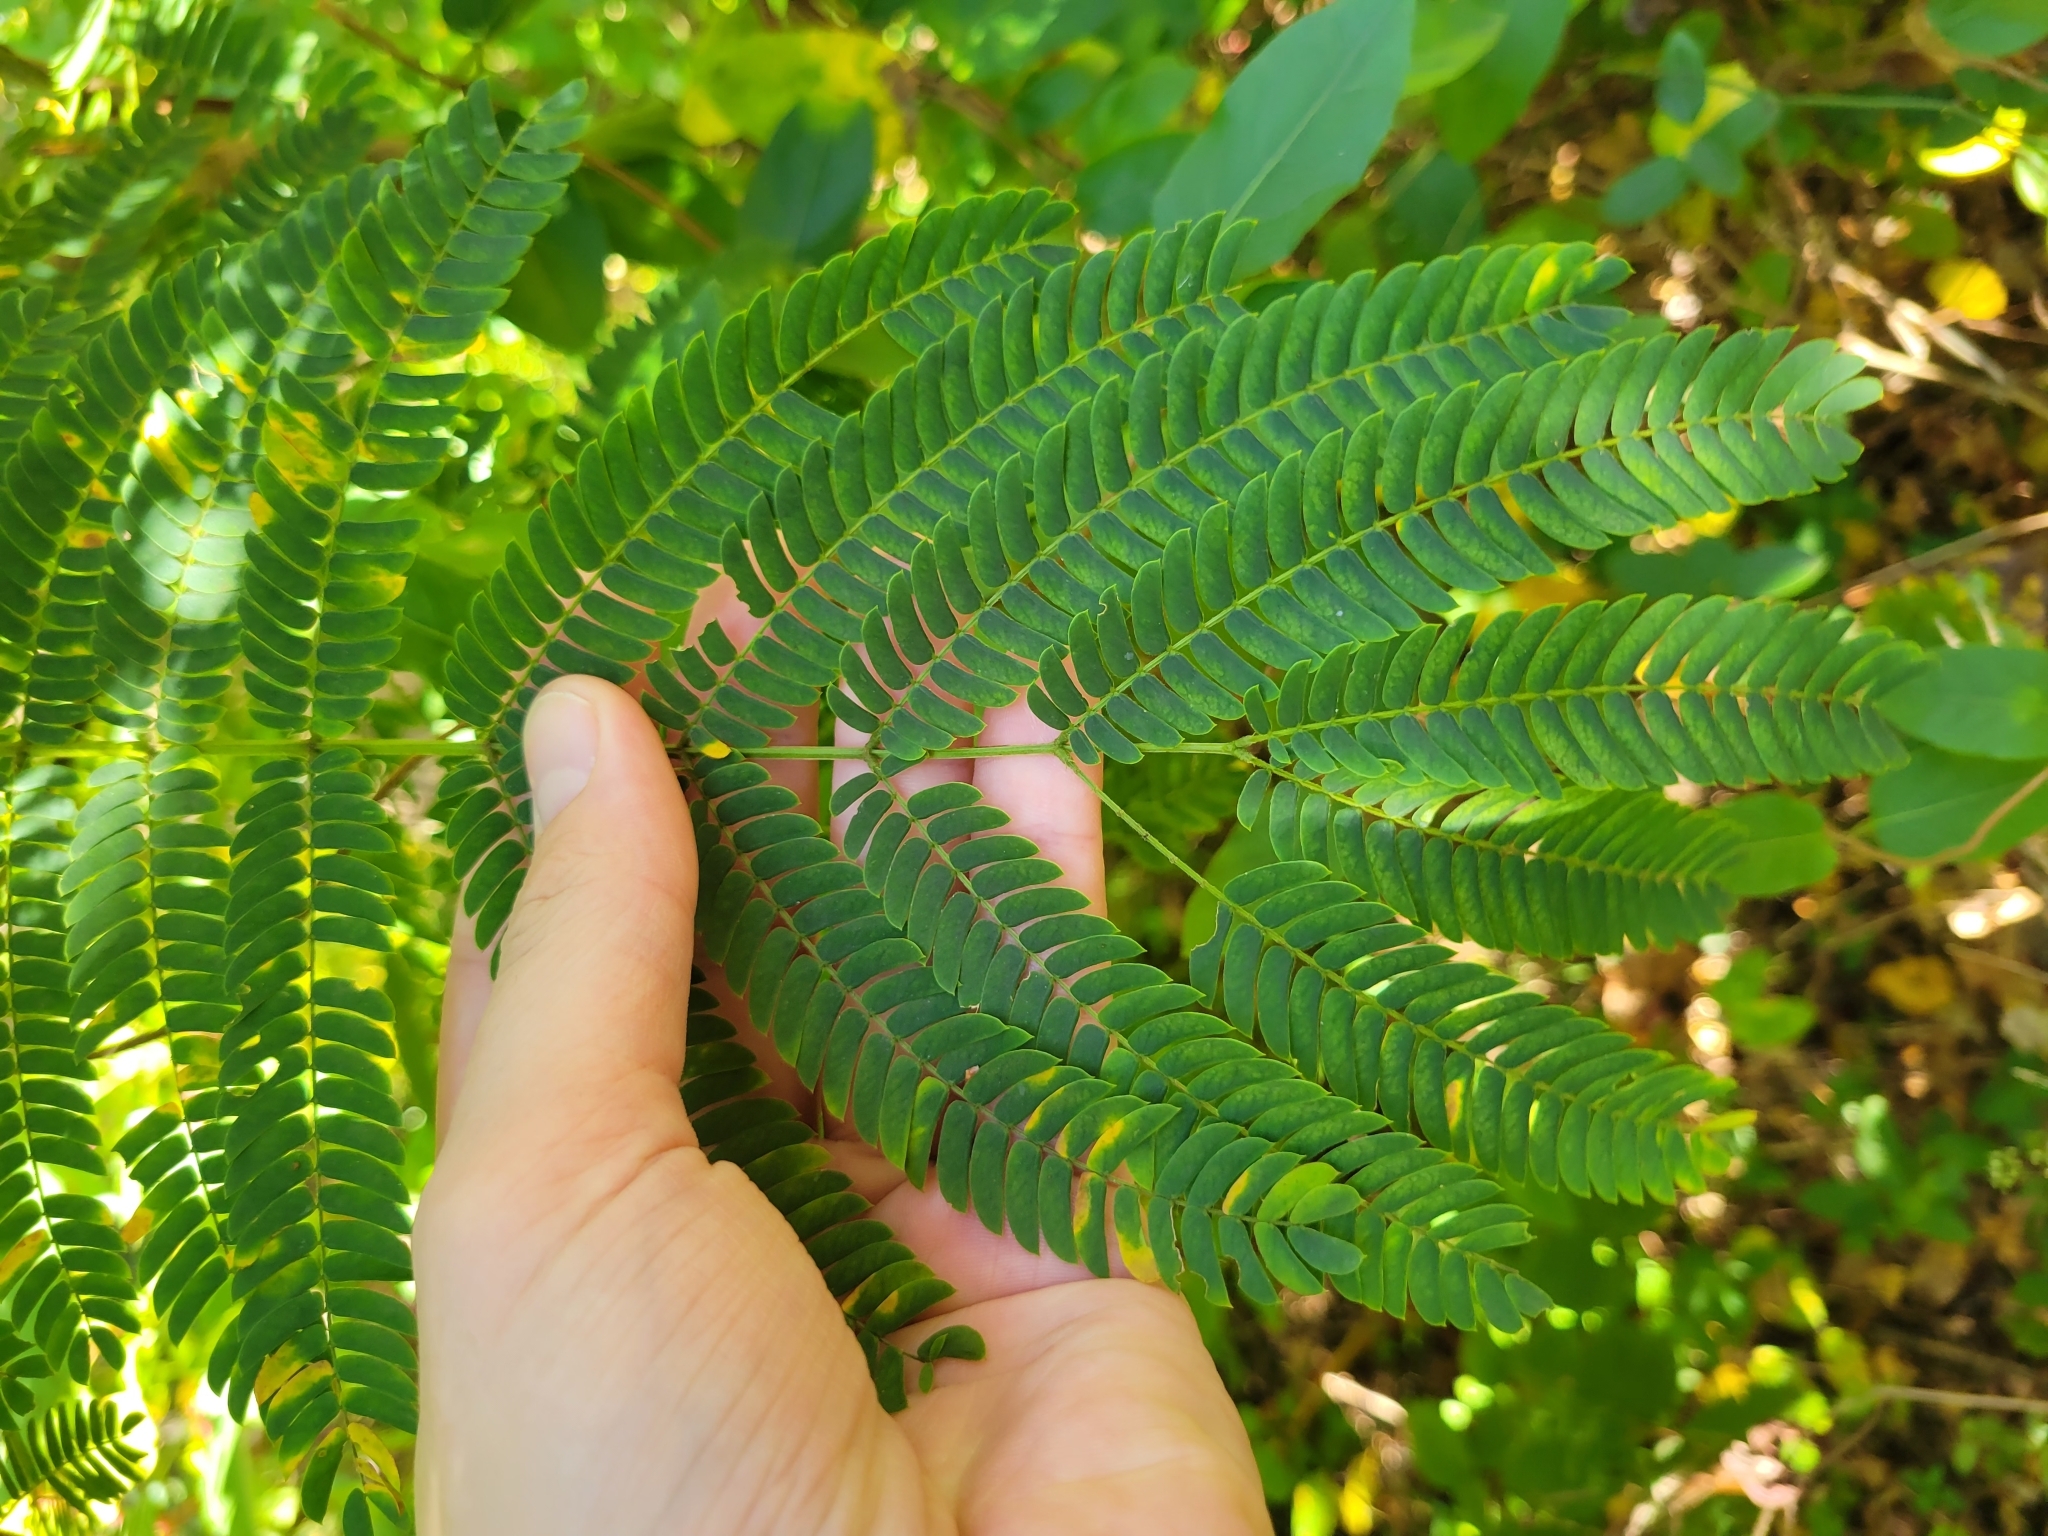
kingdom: Plantae
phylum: Tracheophyta
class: Magnoliopsida
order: Fabales
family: Fabaceae
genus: Albizia
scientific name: Albizia julibrissin
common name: Silktree
